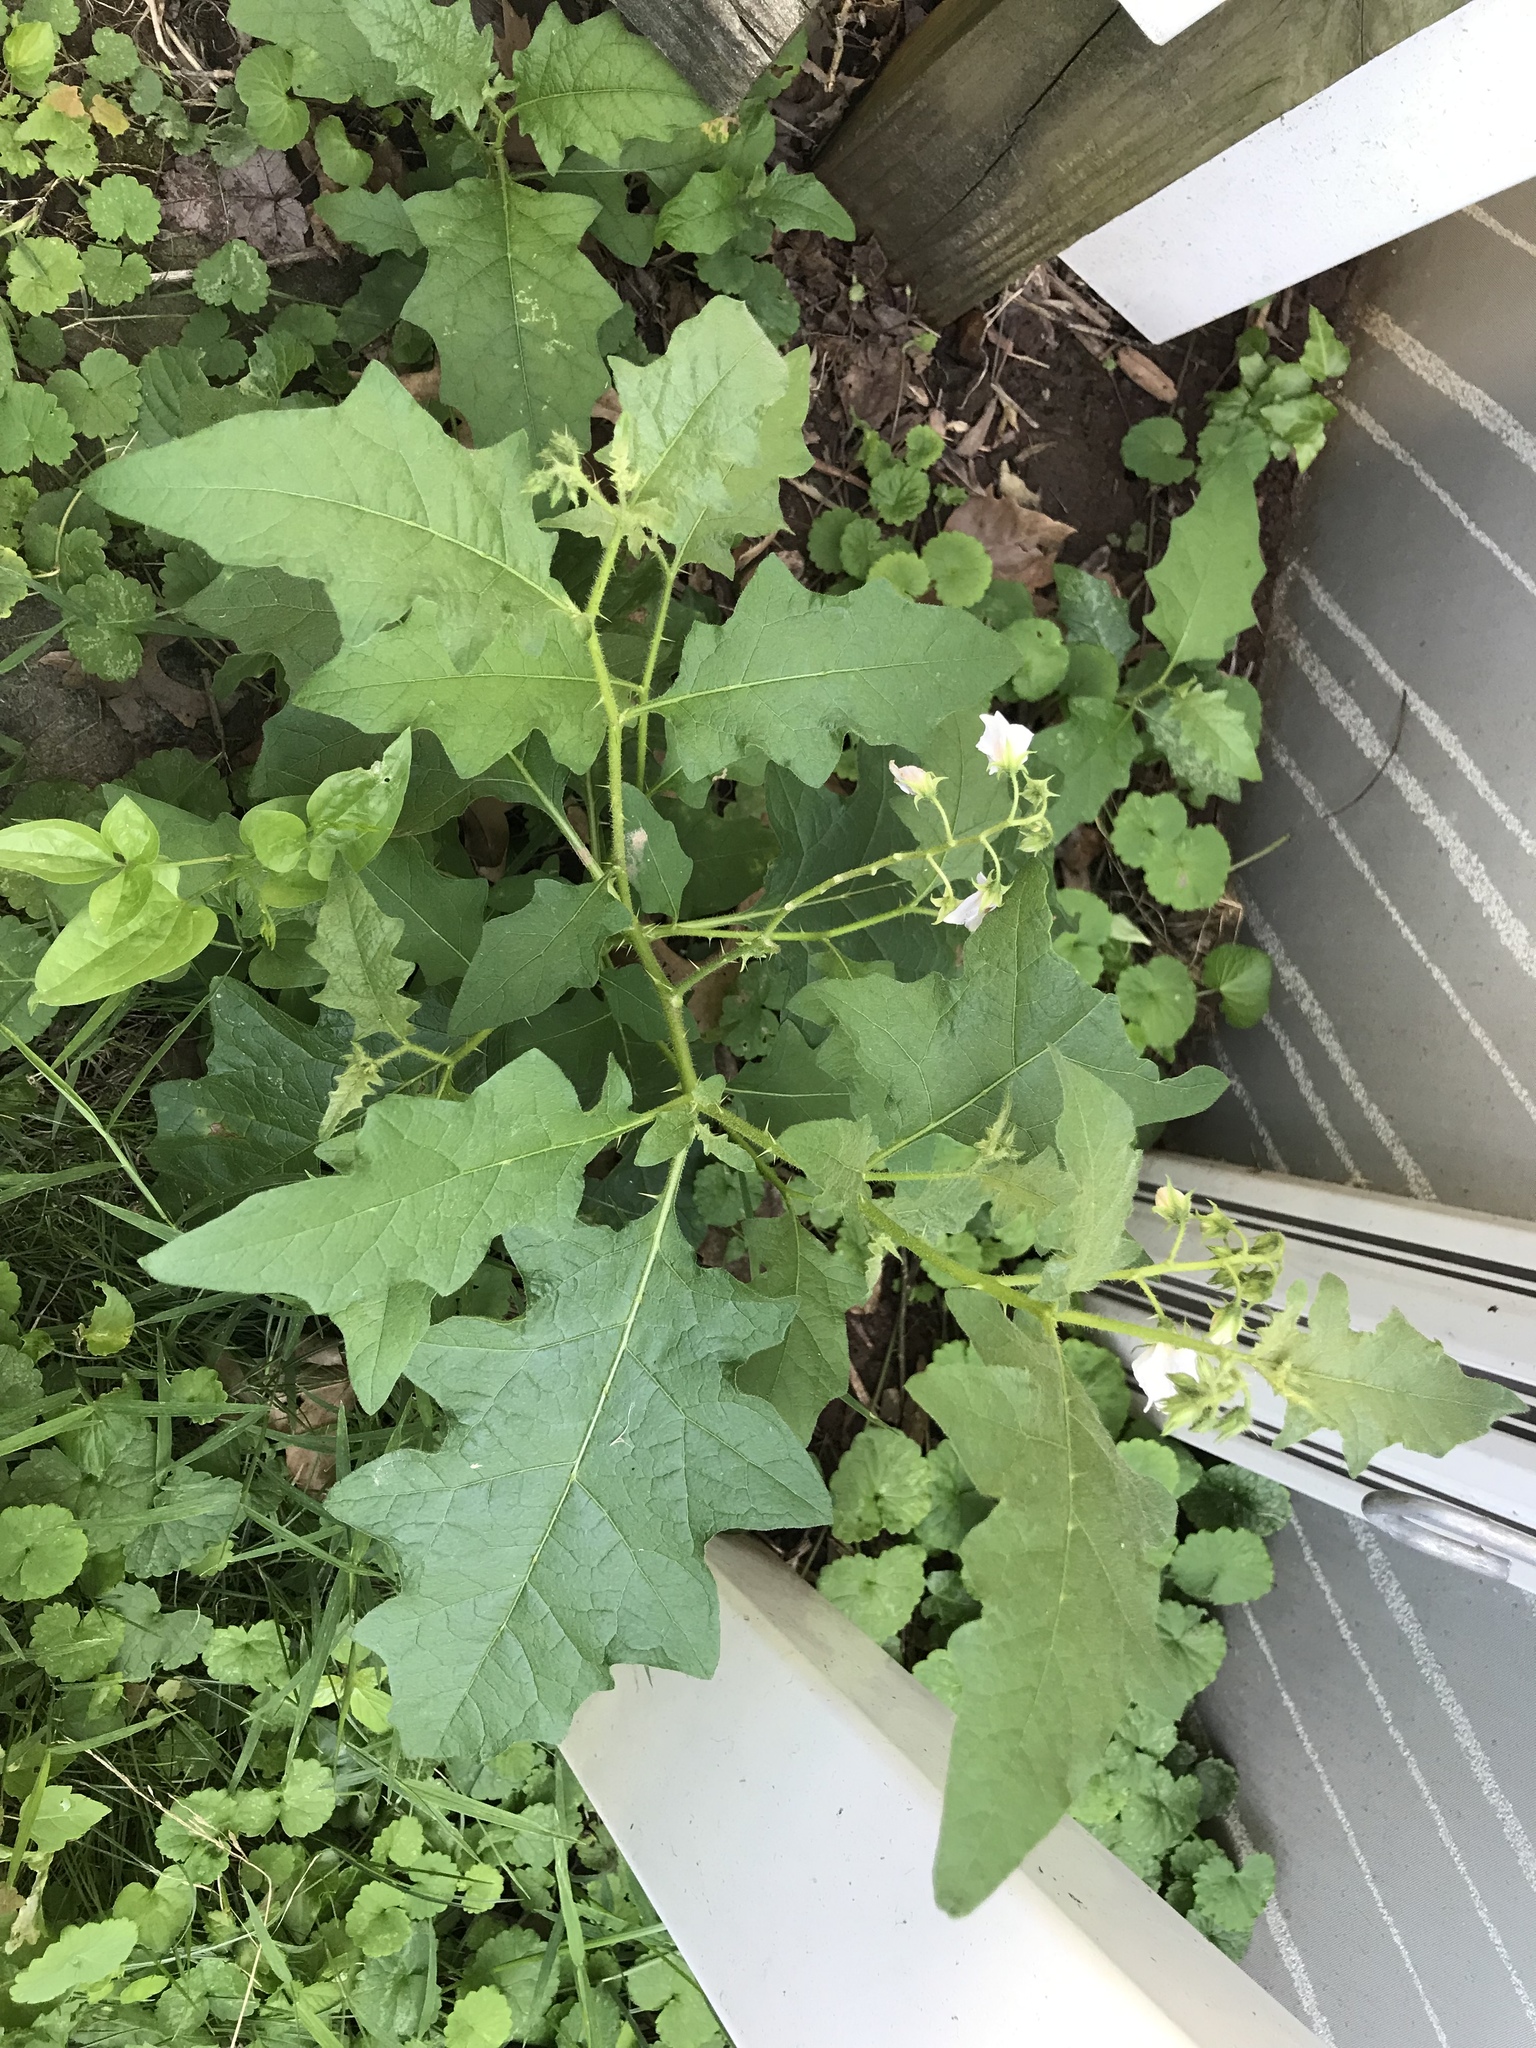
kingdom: Plantae
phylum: Tracheophyta
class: Magnoliopsida
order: Solanales
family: Solanaceae
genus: Solanum
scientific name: Solanum carolinense
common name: Horse-nettle
